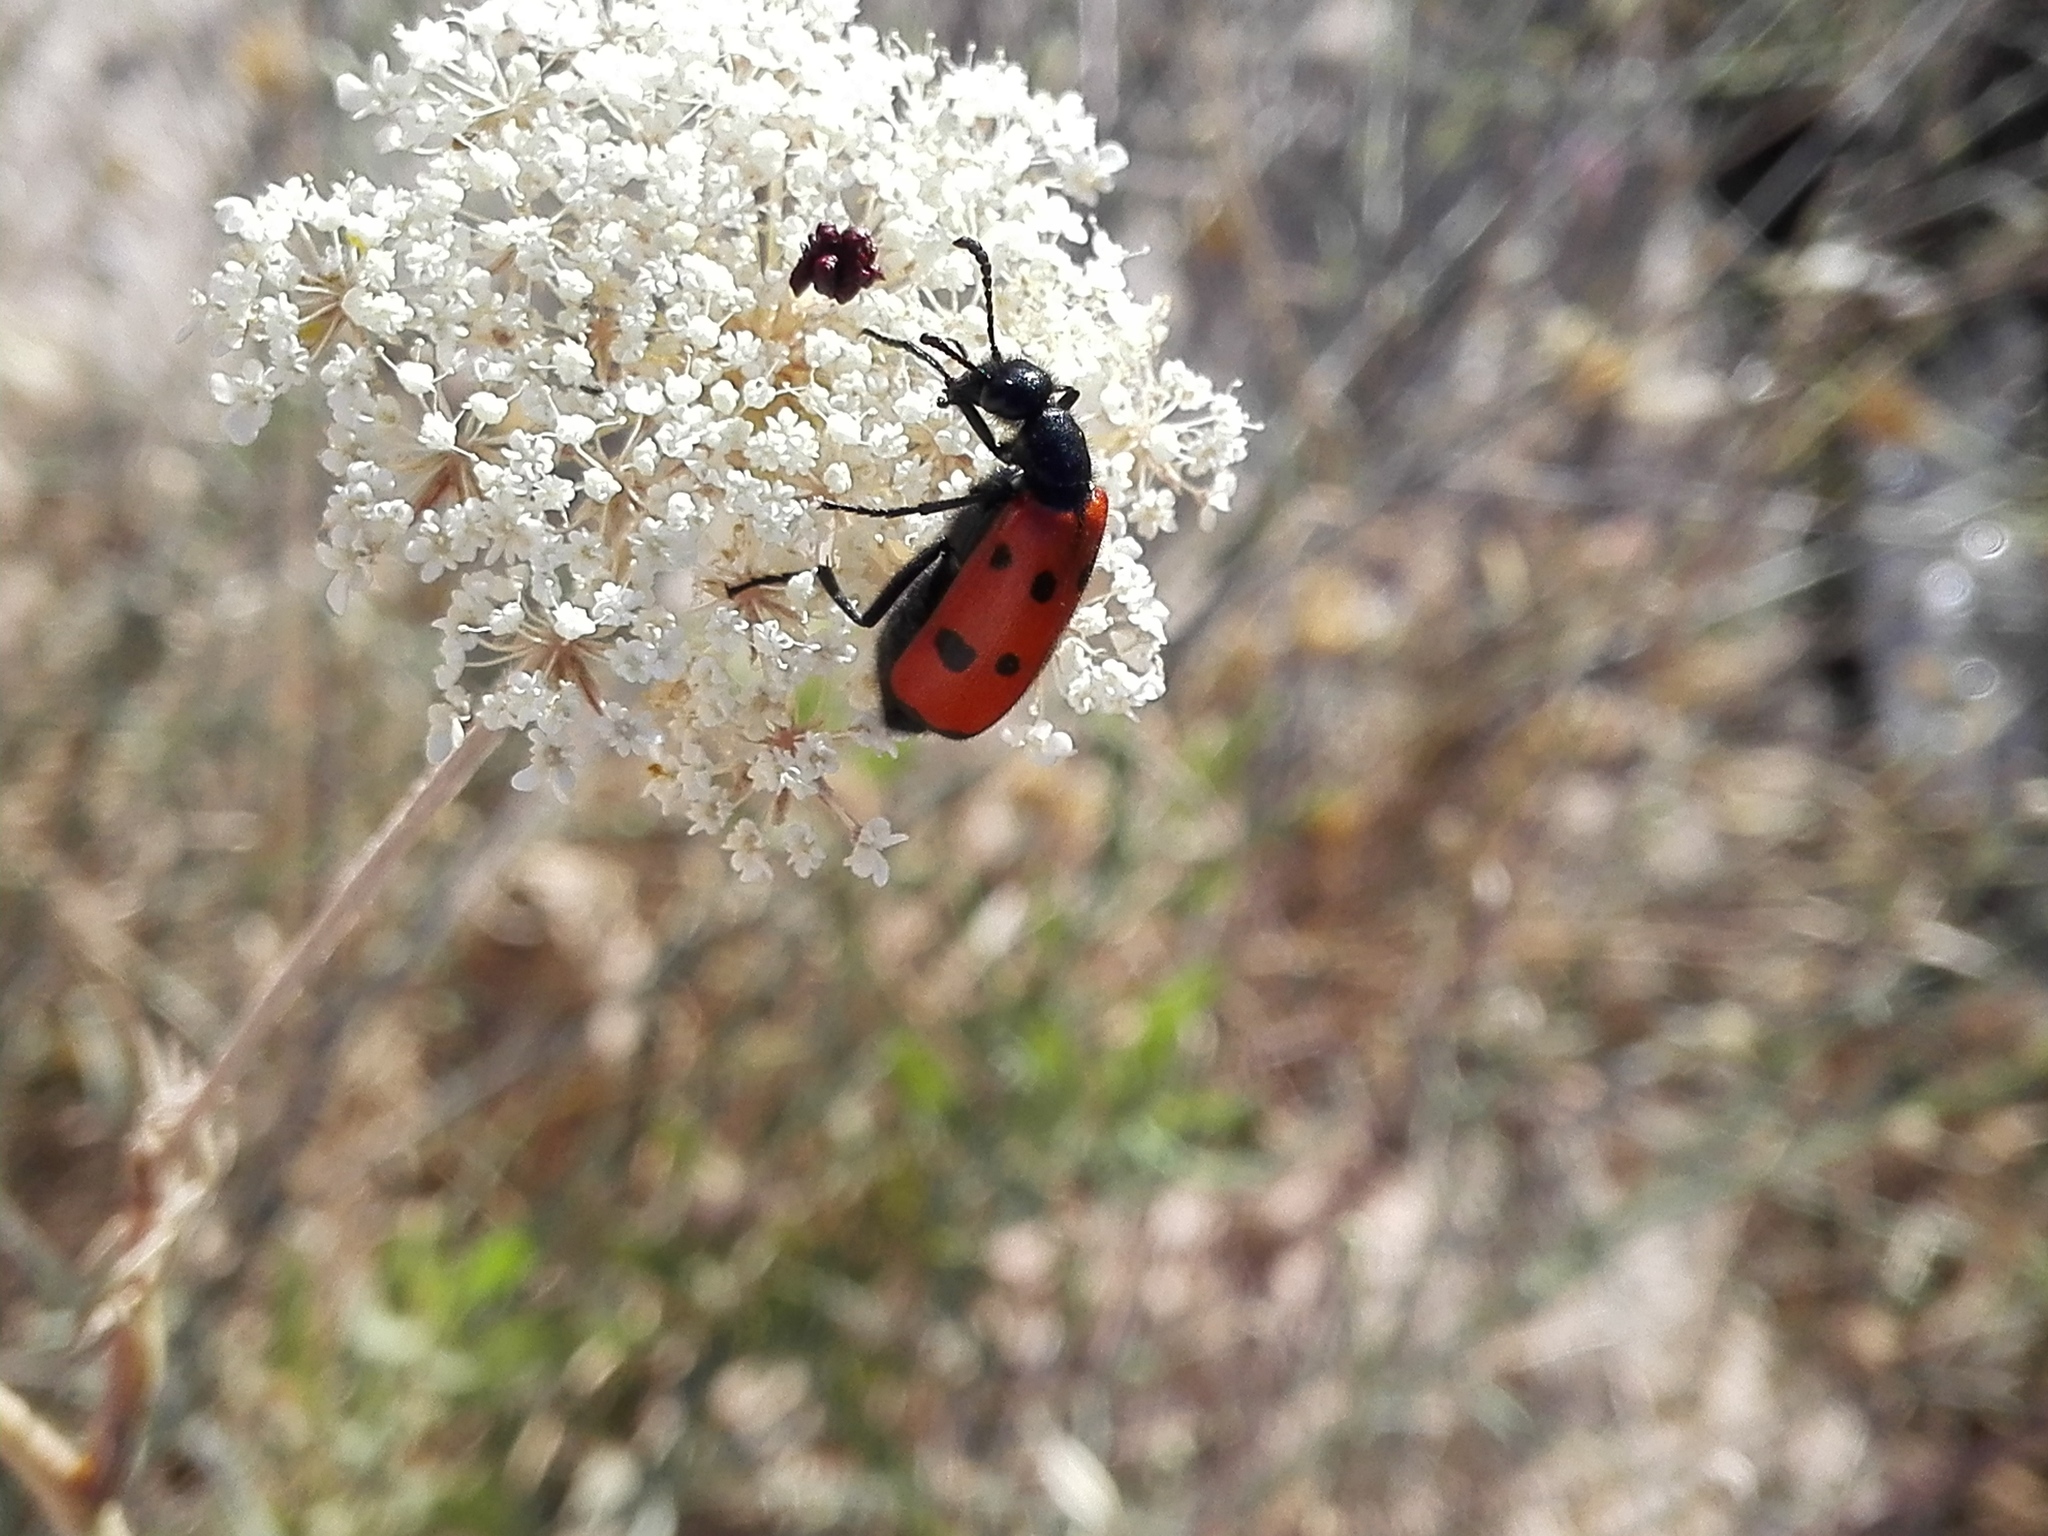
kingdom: Animalia
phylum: Arthropoda
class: Insecta
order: Coleoptera
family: Meloidae
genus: Mylabris
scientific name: Mylabris quadripunctata
